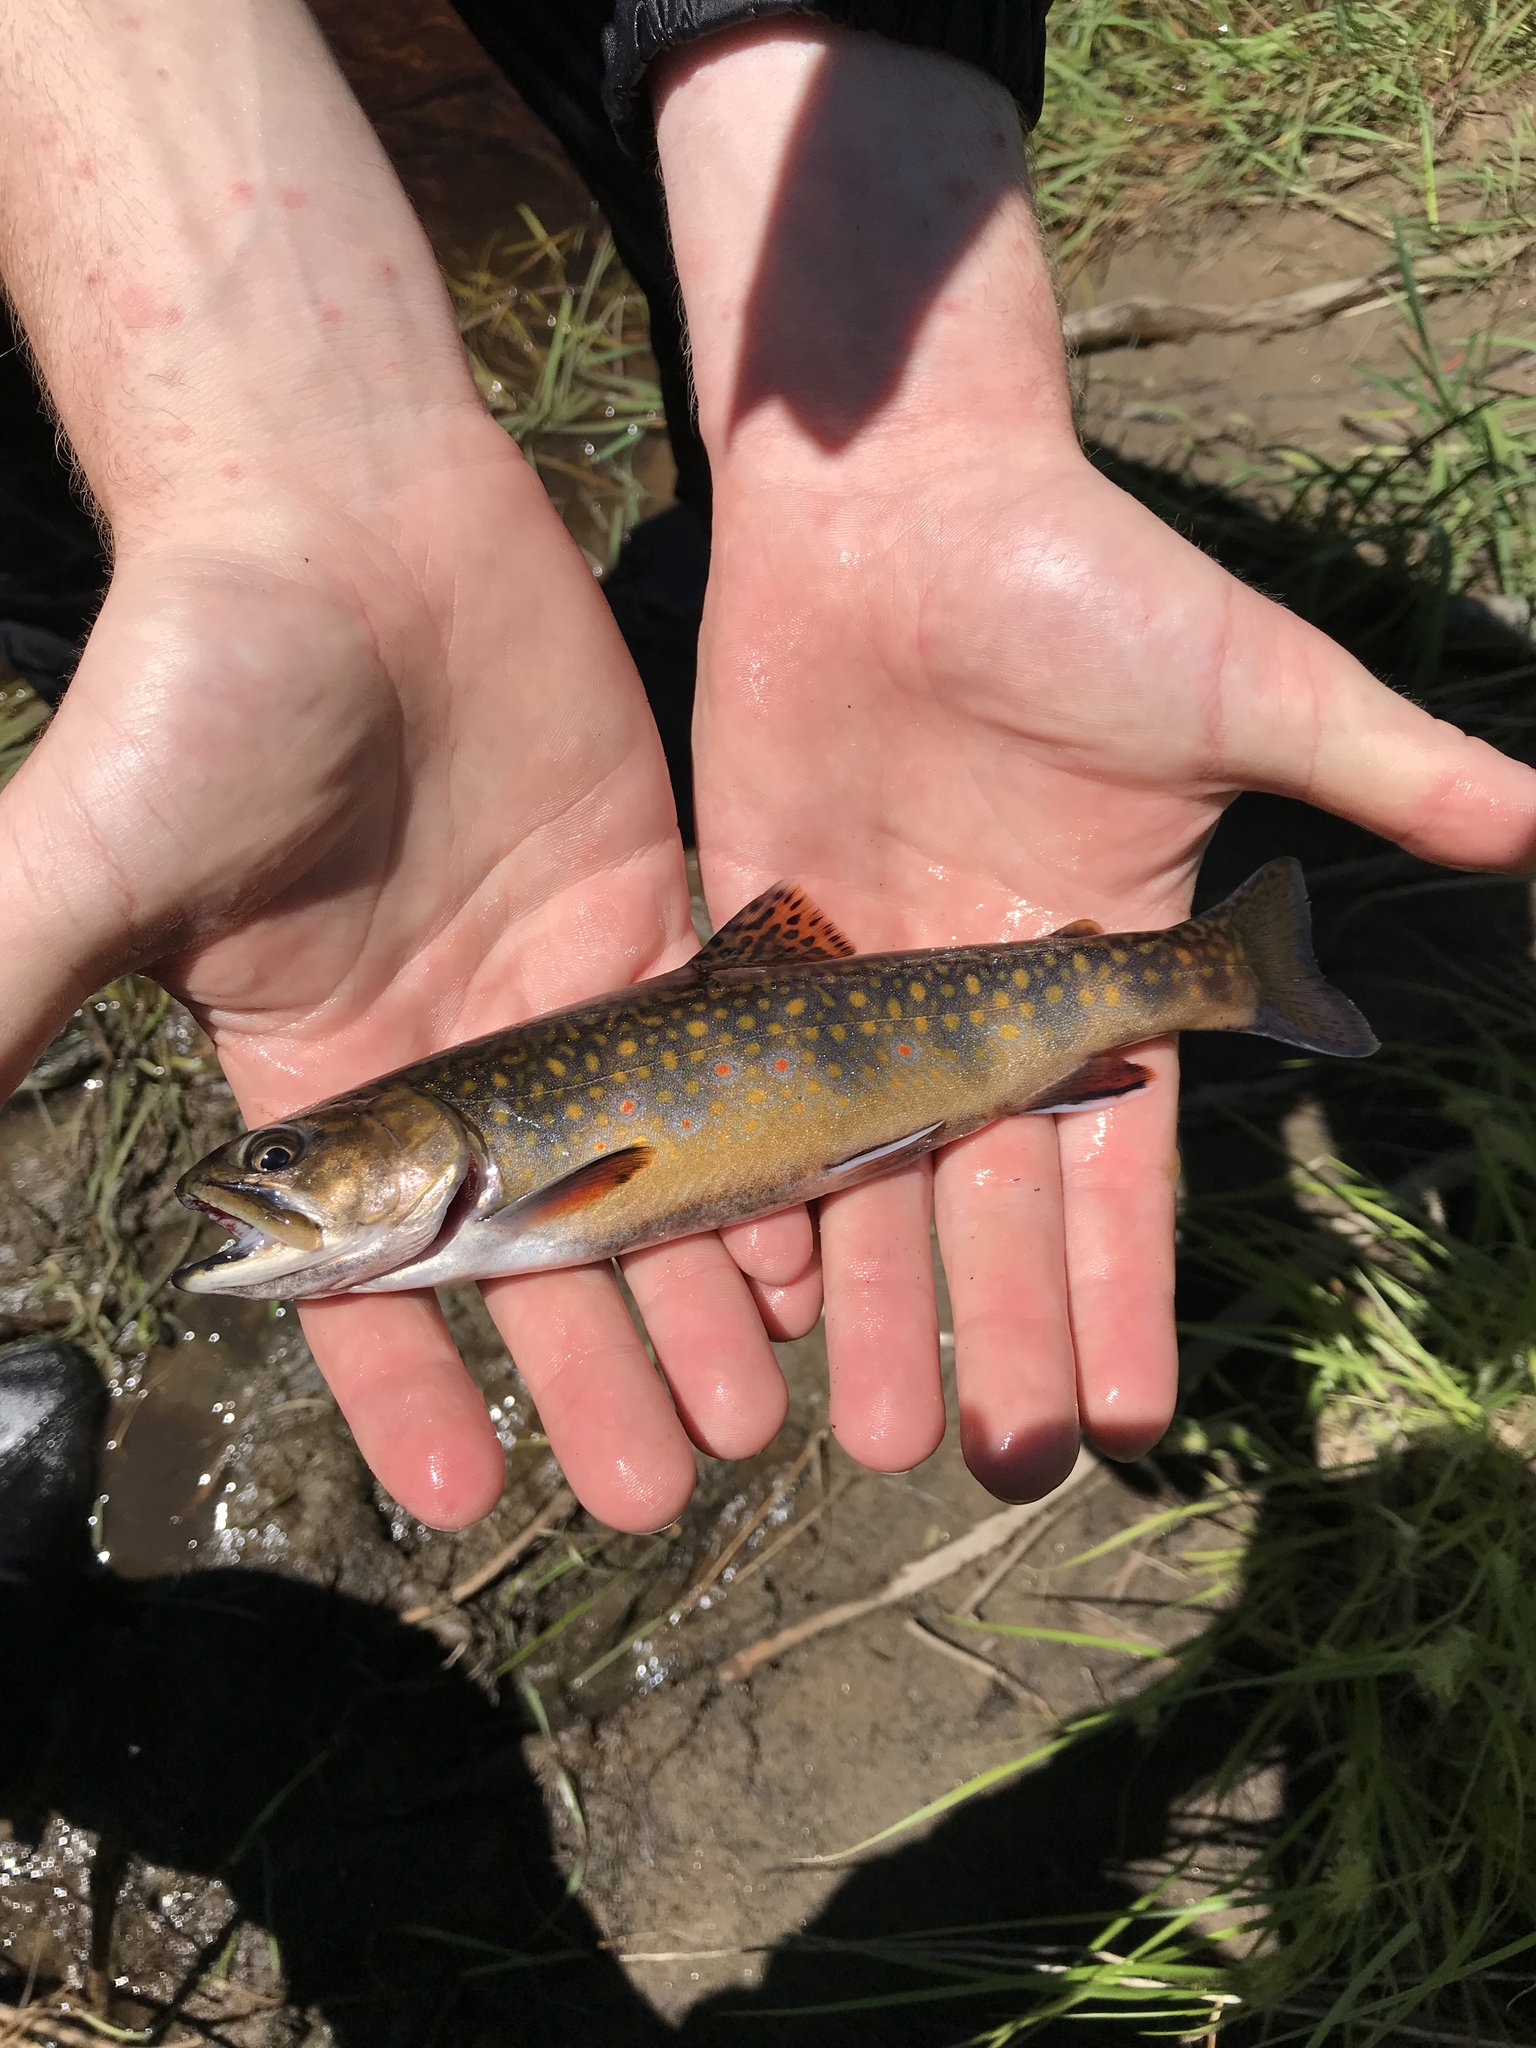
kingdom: Animalia
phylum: Chordata
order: Salmoniformes
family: Salmonidae
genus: Salvelinus
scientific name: Salvelinus fontinalis
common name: Brook trout
